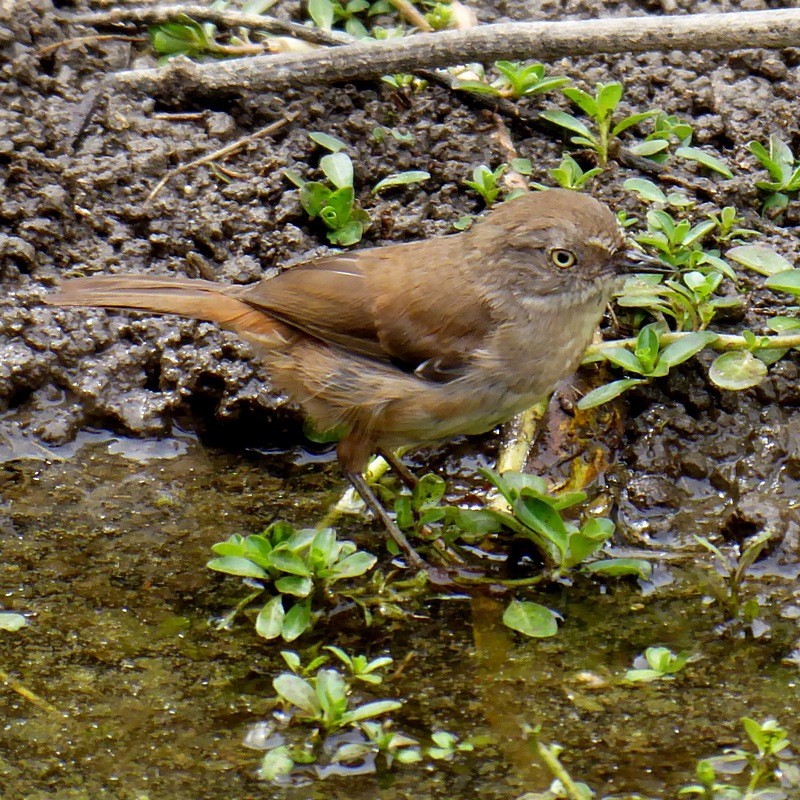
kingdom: Animalia
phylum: Chordata
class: Aves
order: Passeriformes
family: Acanthizidae
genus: Sericornis
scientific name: Sericornis frontalis
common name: White-browed scrubwren
